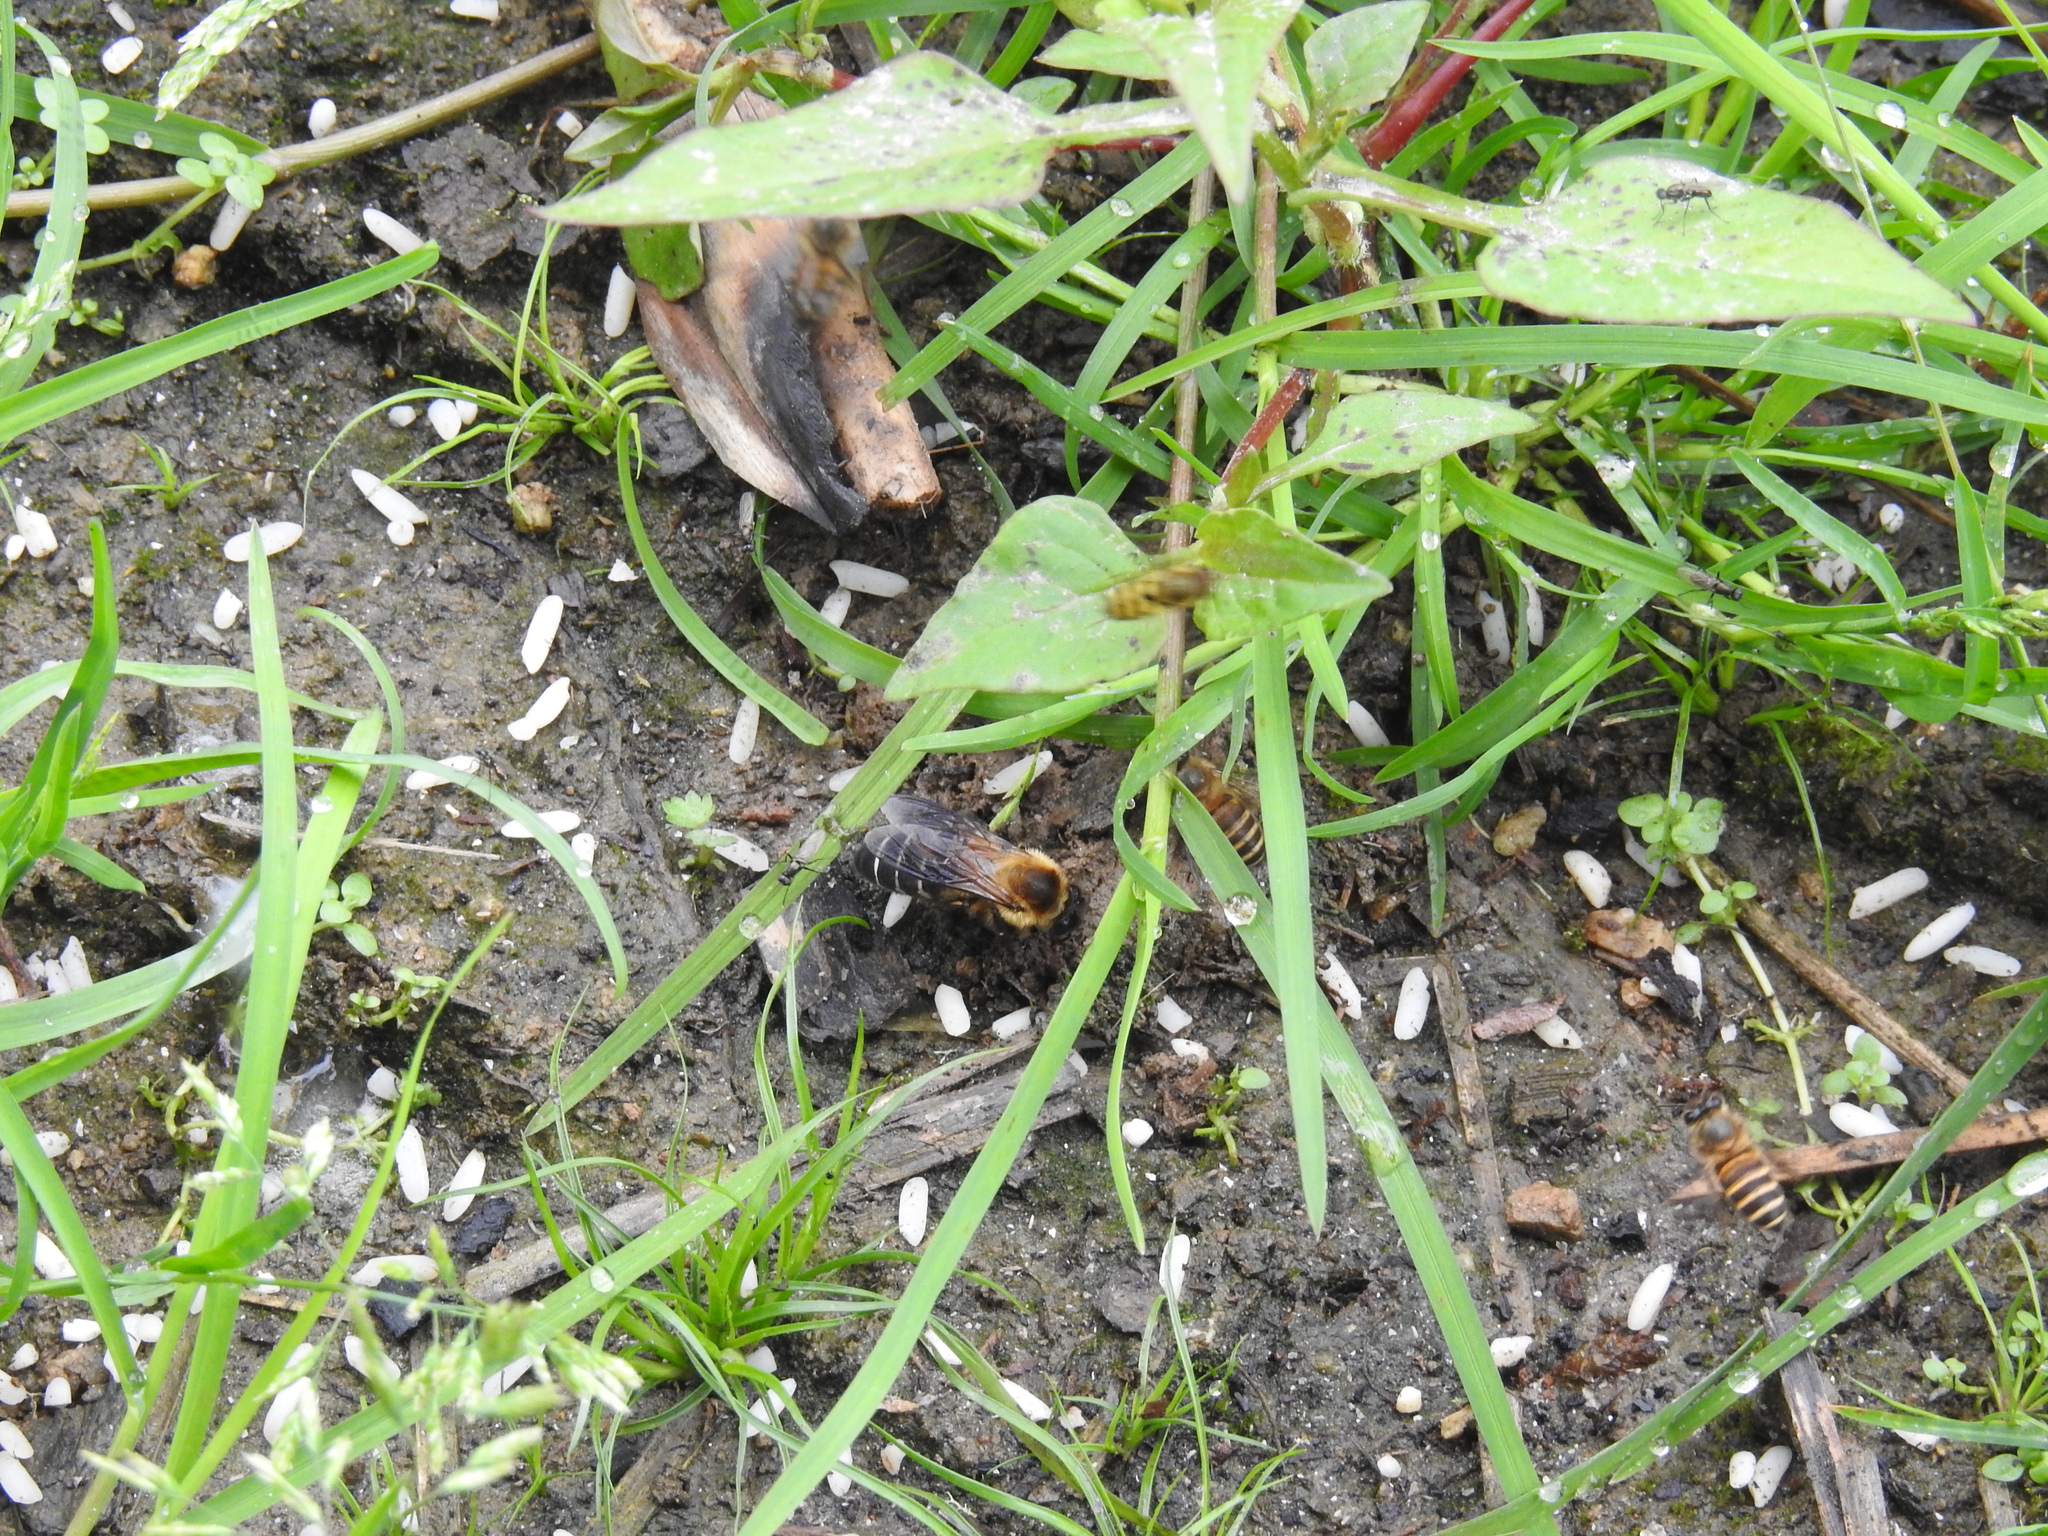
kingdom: Animalia
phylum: Arthropoda
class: Insecta
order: Hymenoptera
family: Apidae
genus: Apis
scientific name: Apis laboriosa
